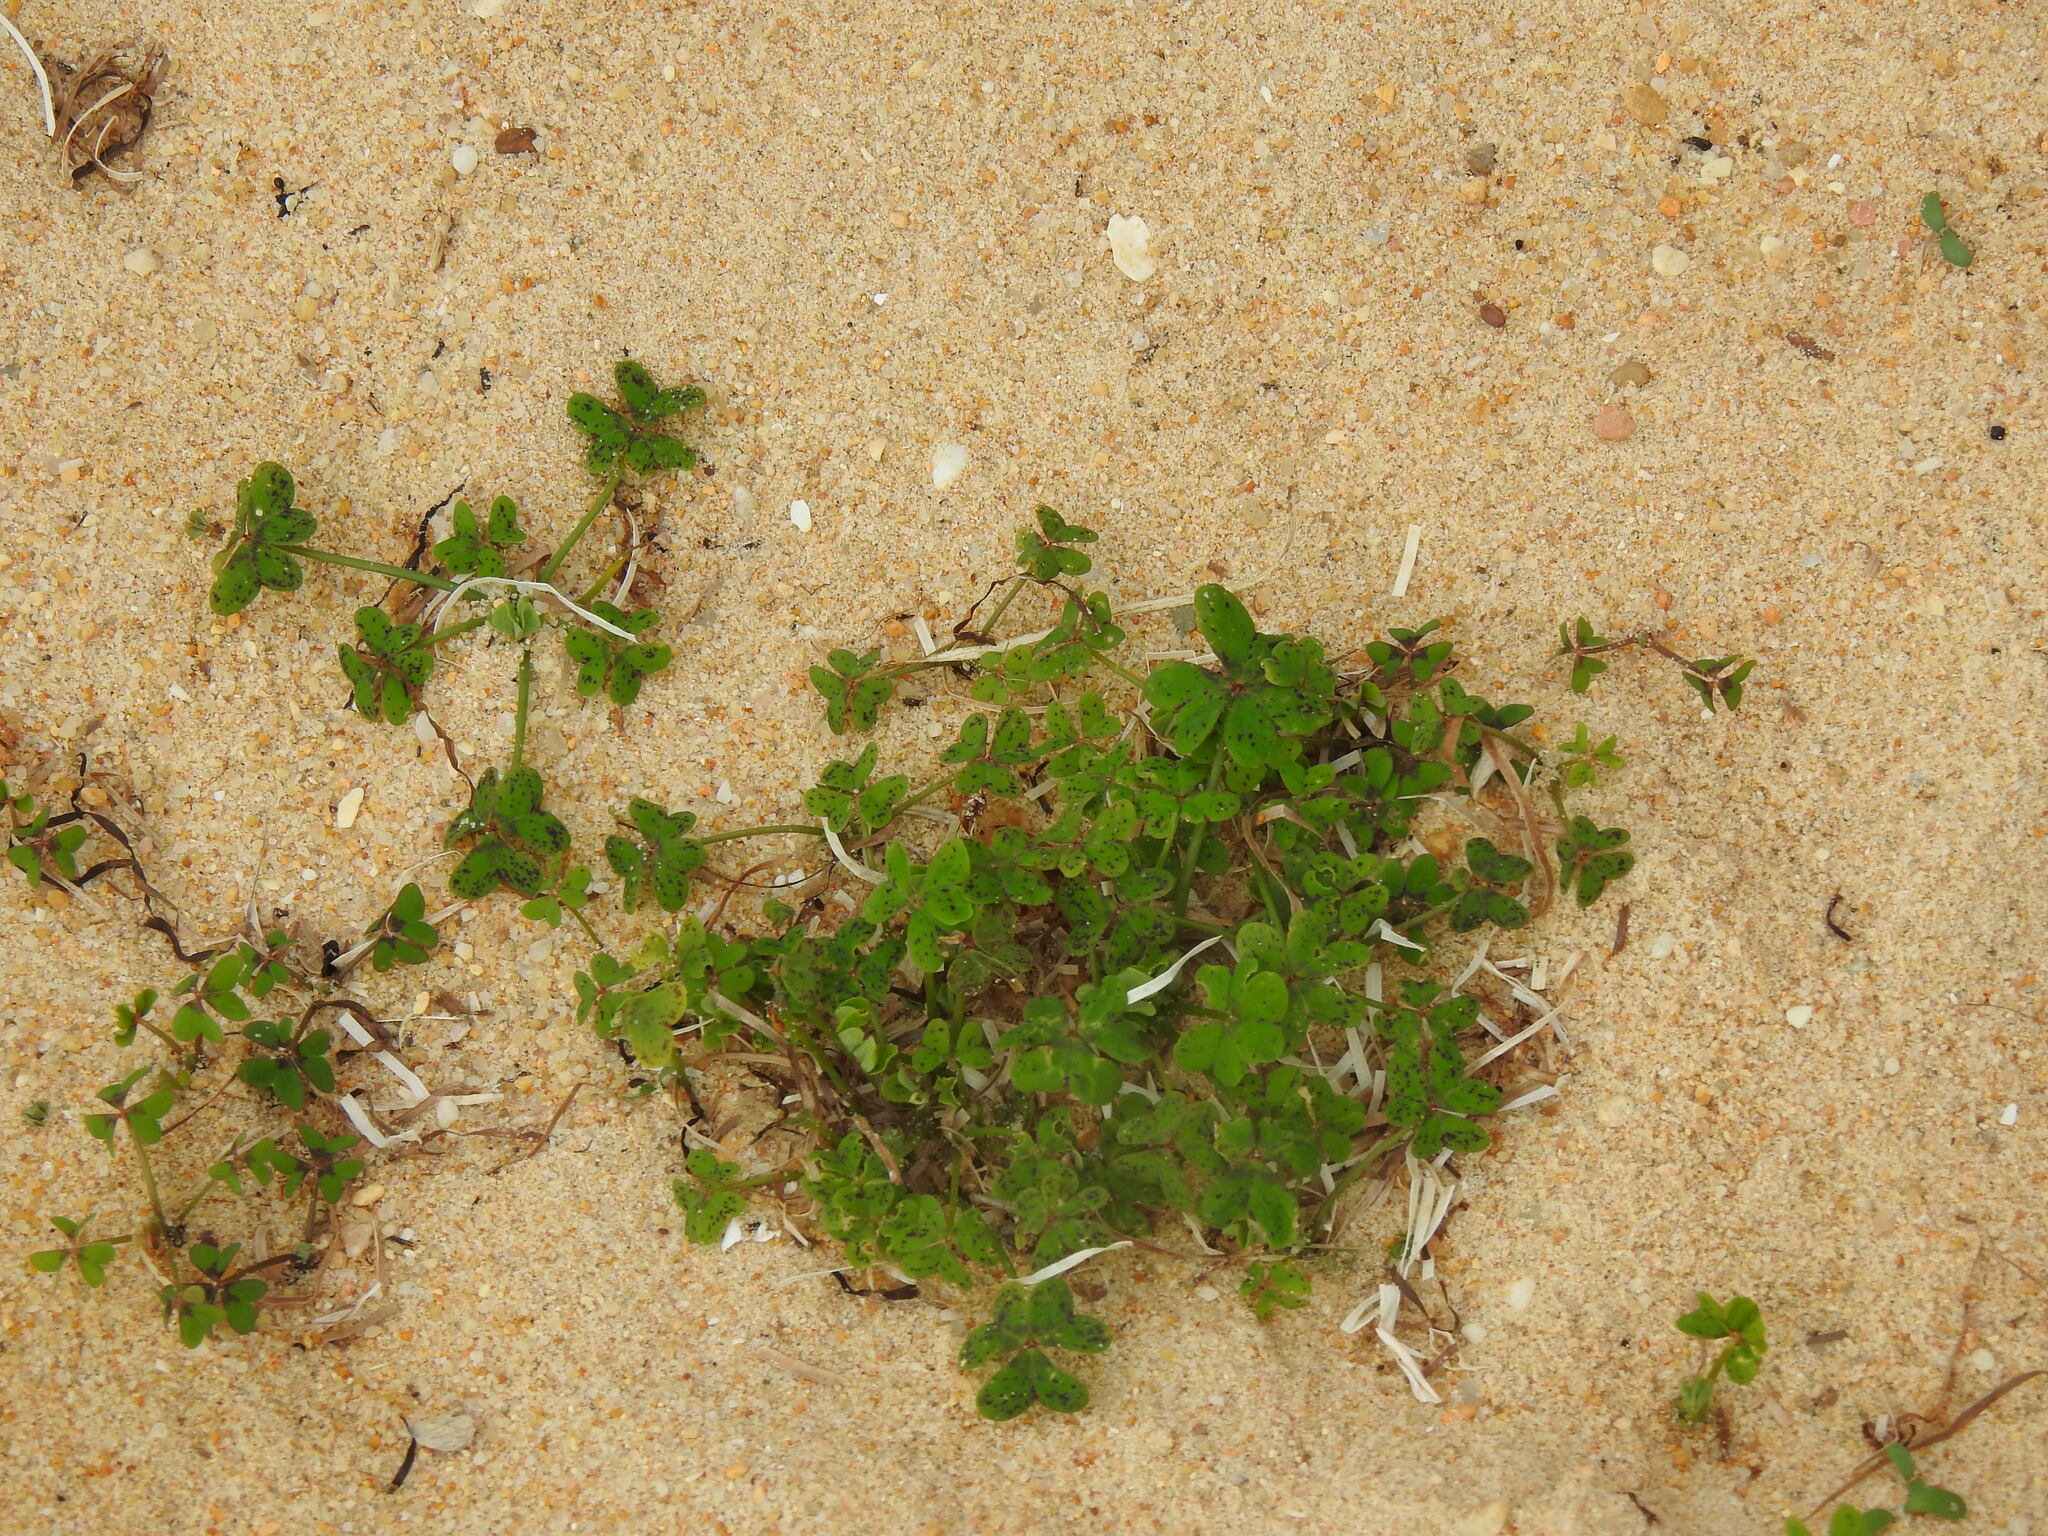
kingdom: Plantae
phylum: Tracheophyta
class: Magnoliopsida
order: Oxalidales
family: Oxalidaceae
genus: Oxalis
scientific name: Oxalis pes-caprae
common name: Bermuda-buttercup
